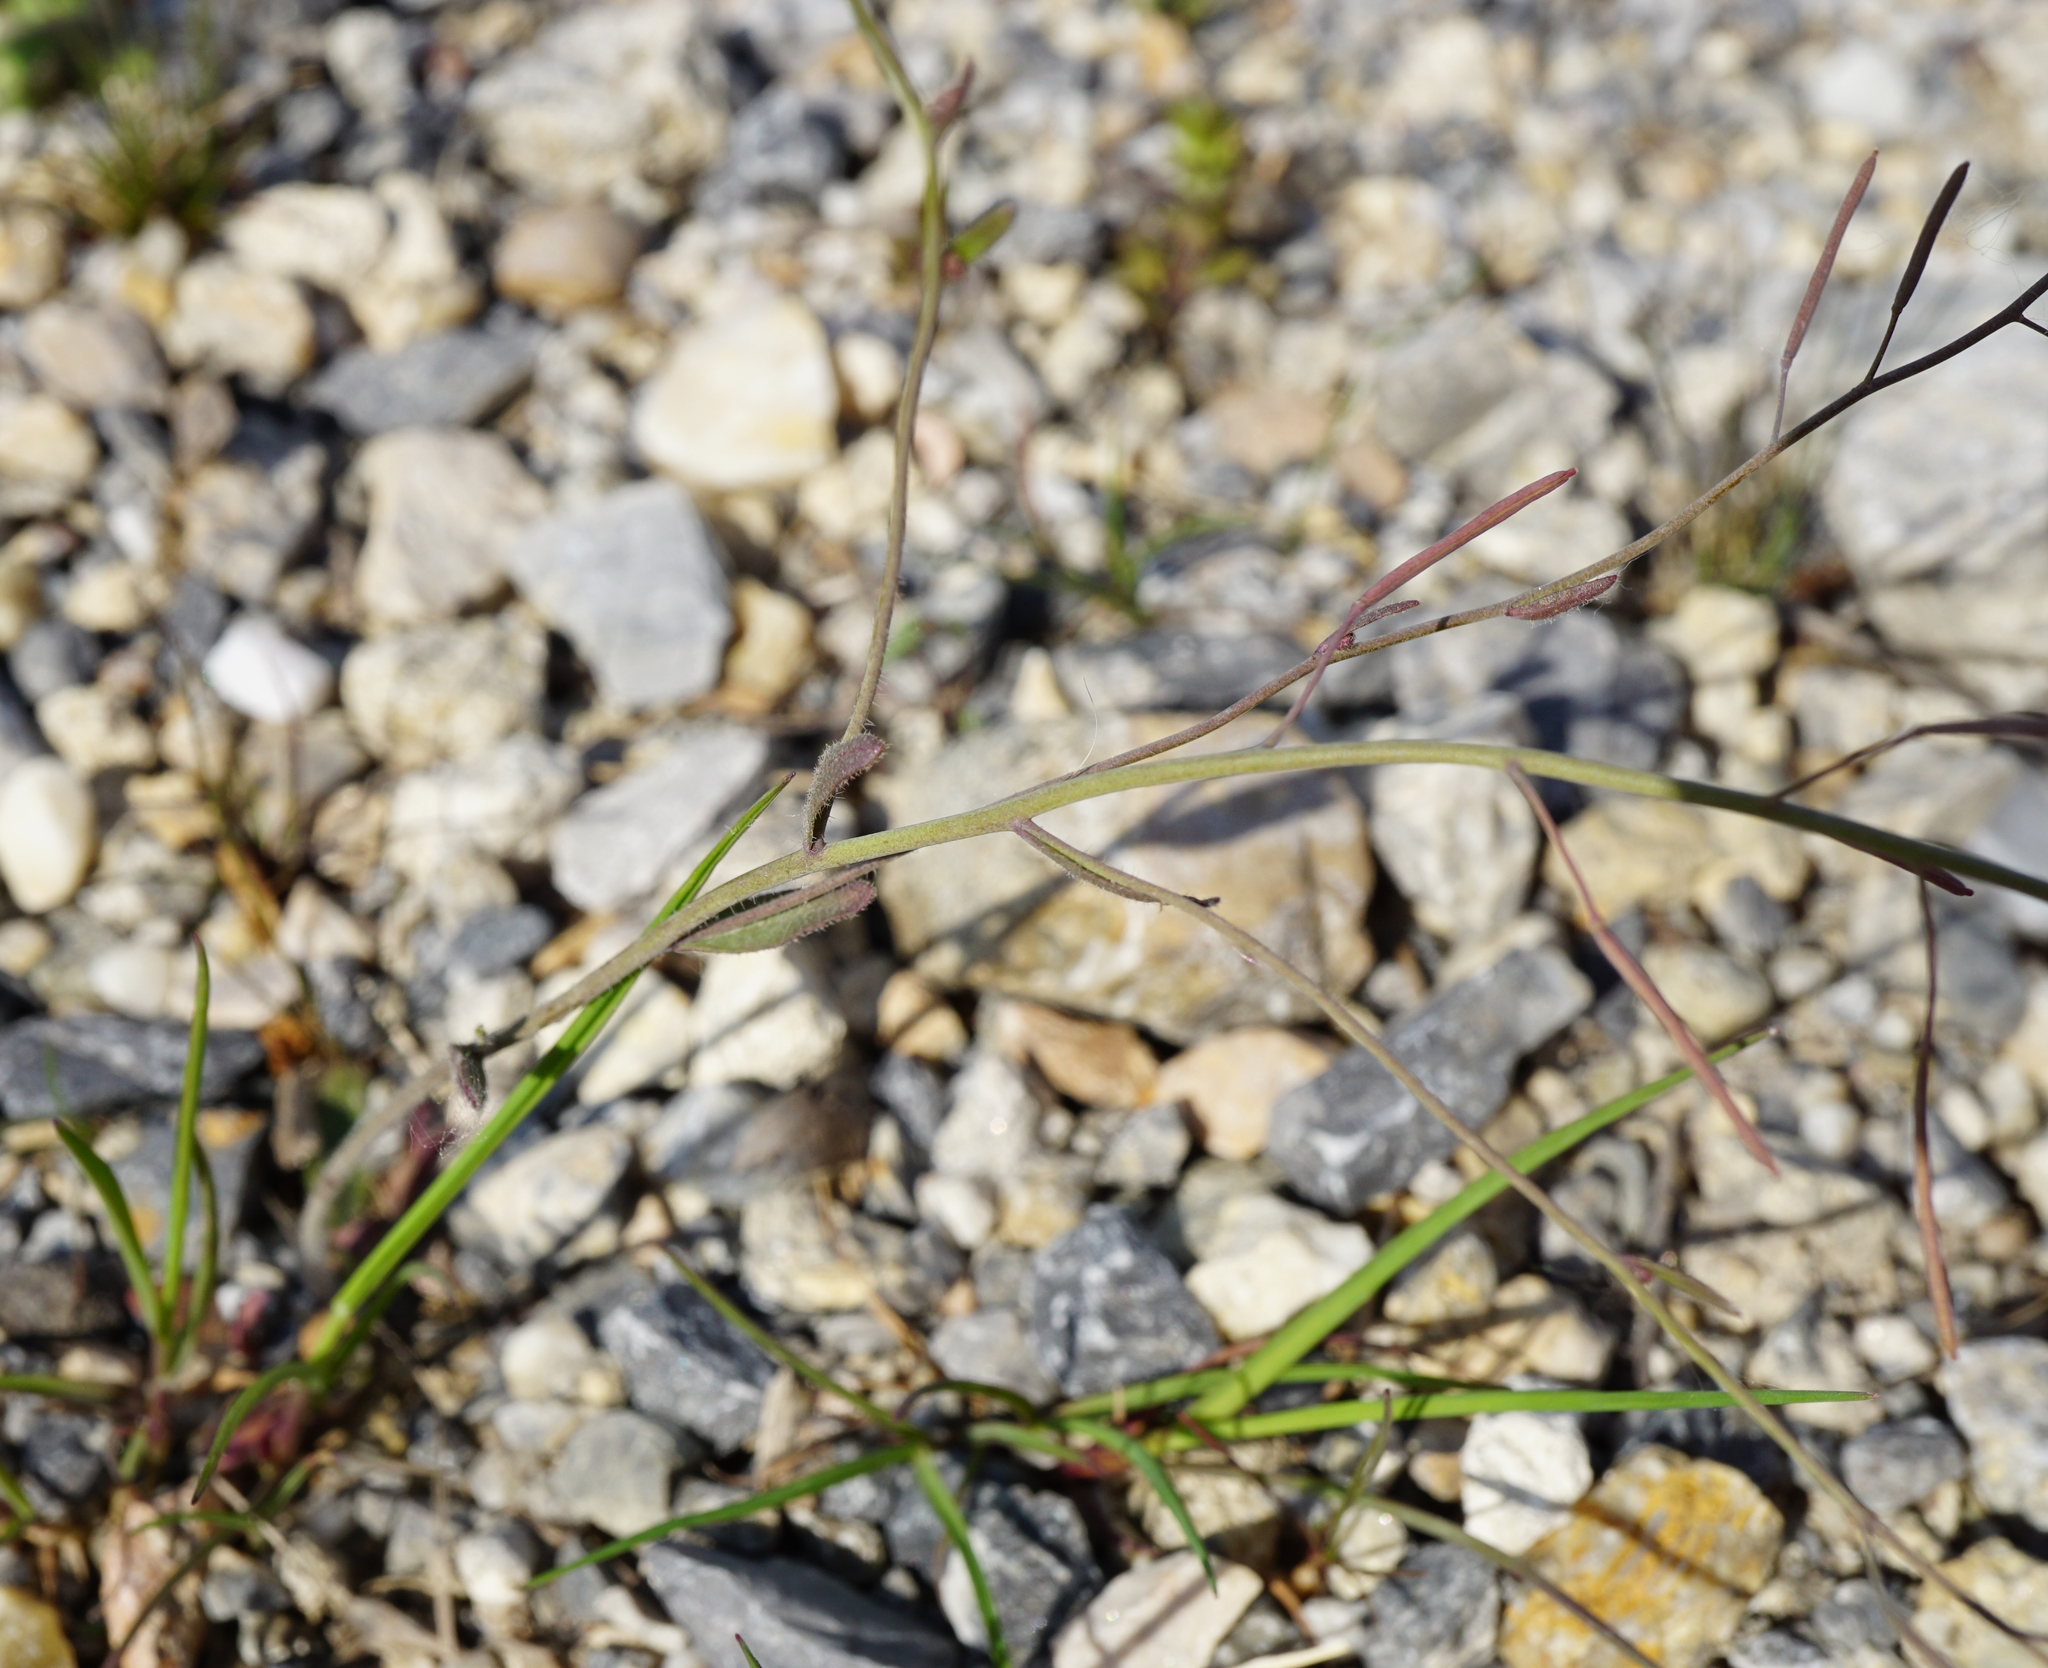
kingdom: Plantae
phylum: Tracheophyta
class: Magnoliopsida
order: Brassicales
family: Brassicaceae
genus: Arabidopsis
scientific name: Arabidopsis thaliana
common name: Thale cress
